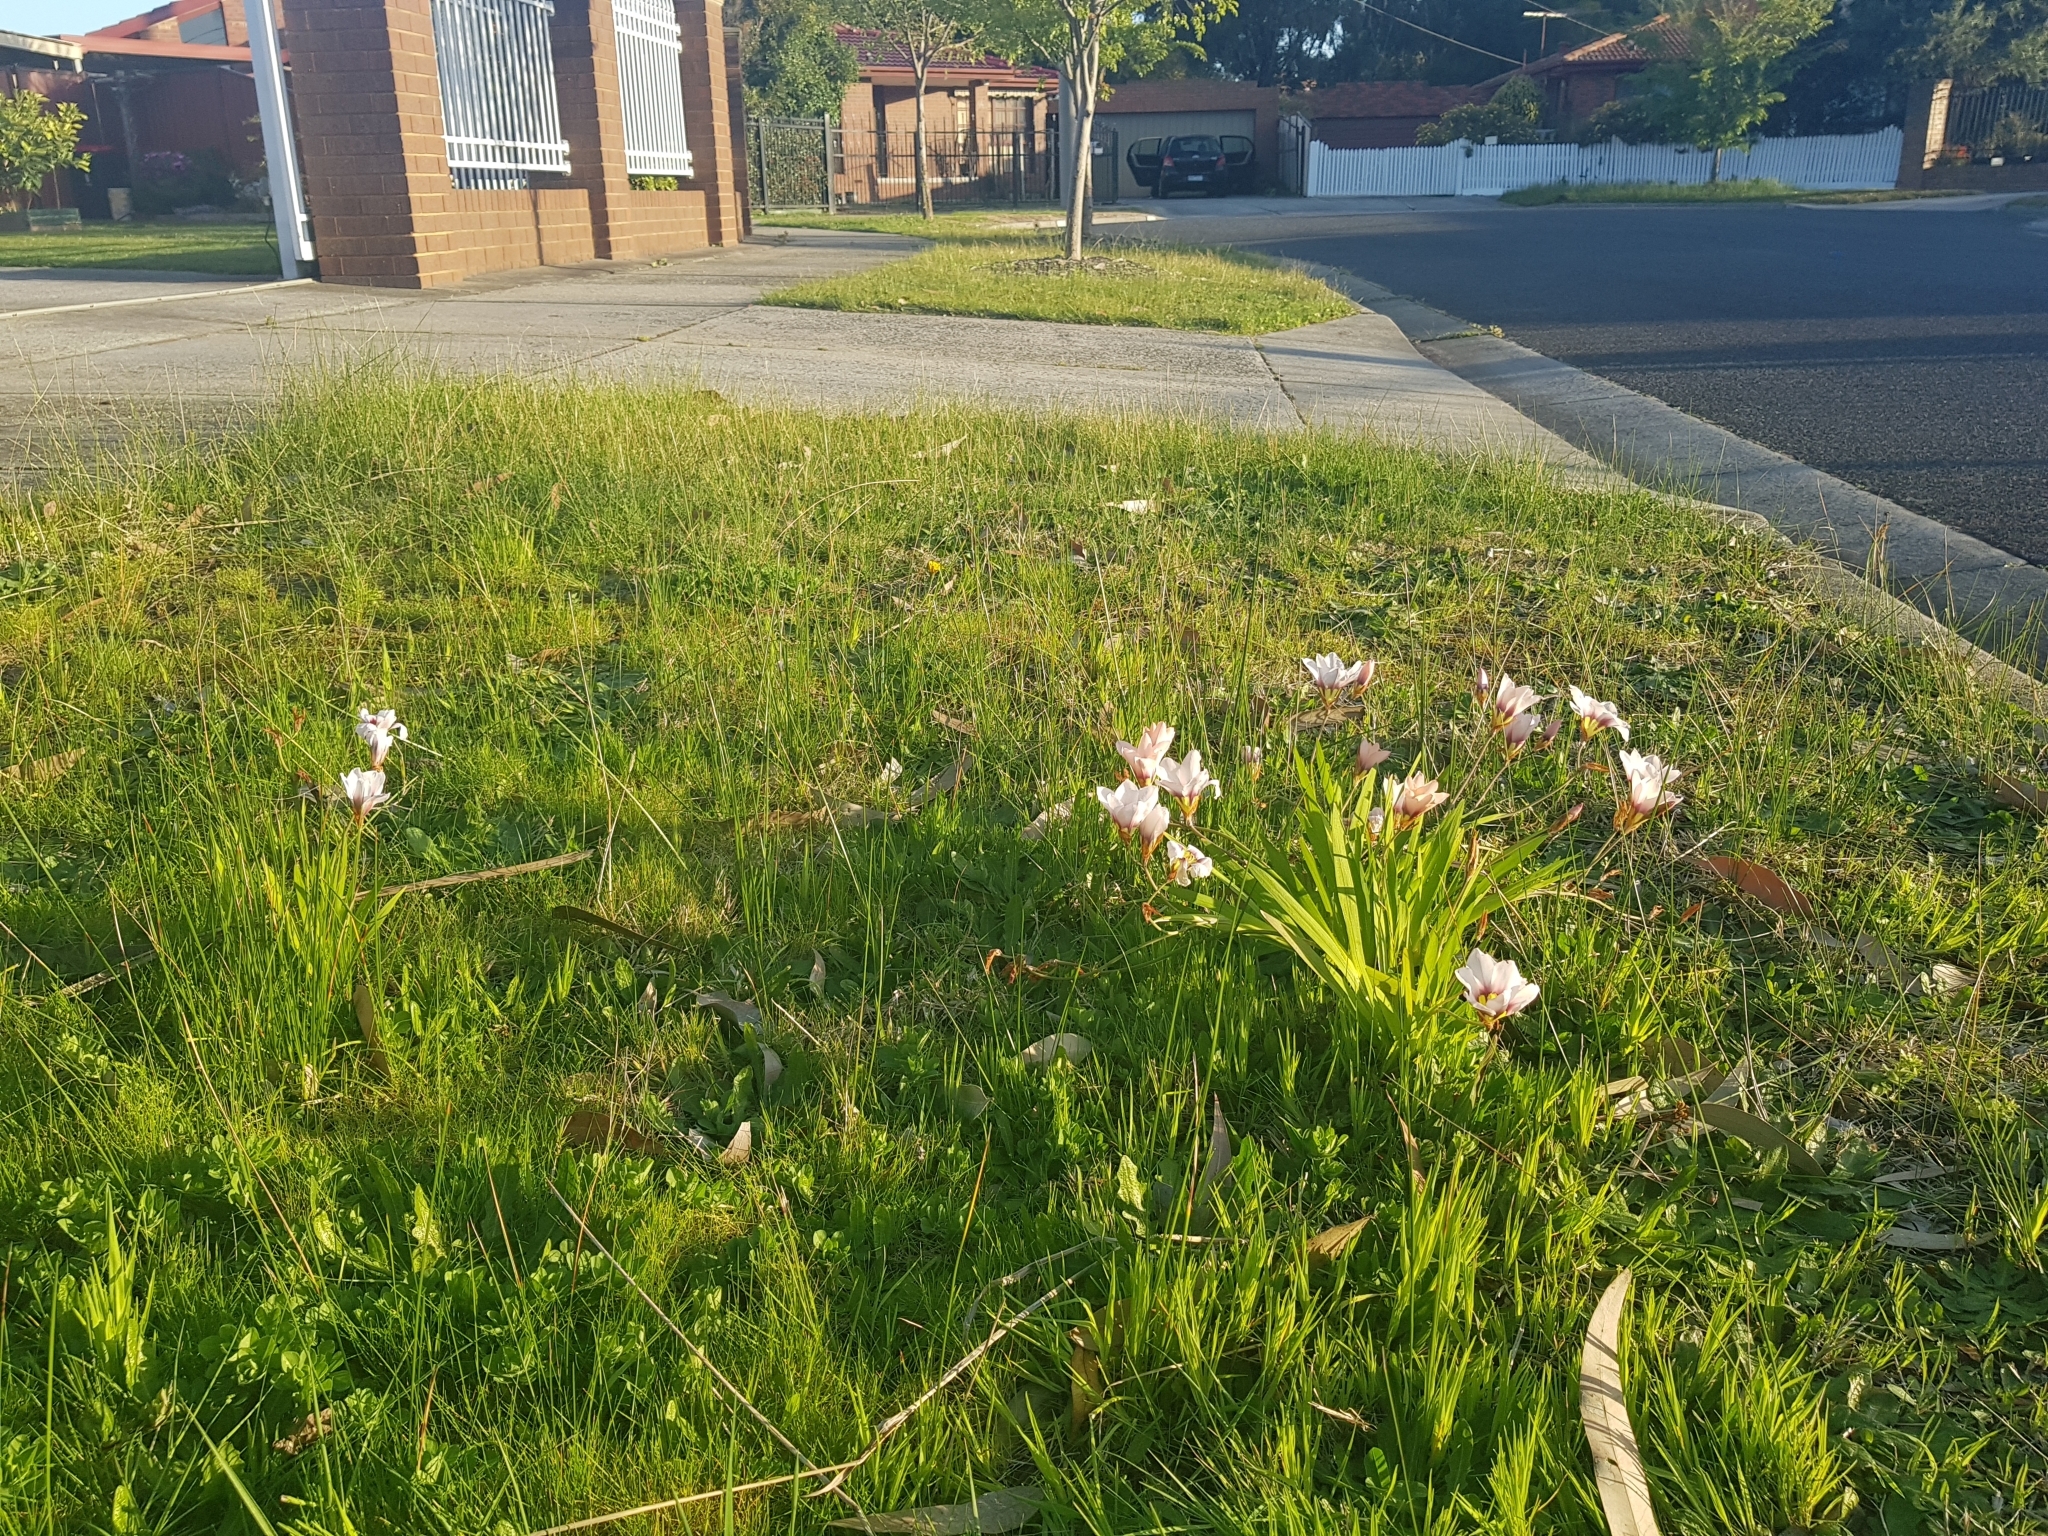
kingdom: Plantae
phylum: Tracheophyta
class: Liliopsida
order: Asparagales
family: Iridaceae
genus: Sparaxis
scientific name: Sparaxis tricolor
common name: Wandflower
